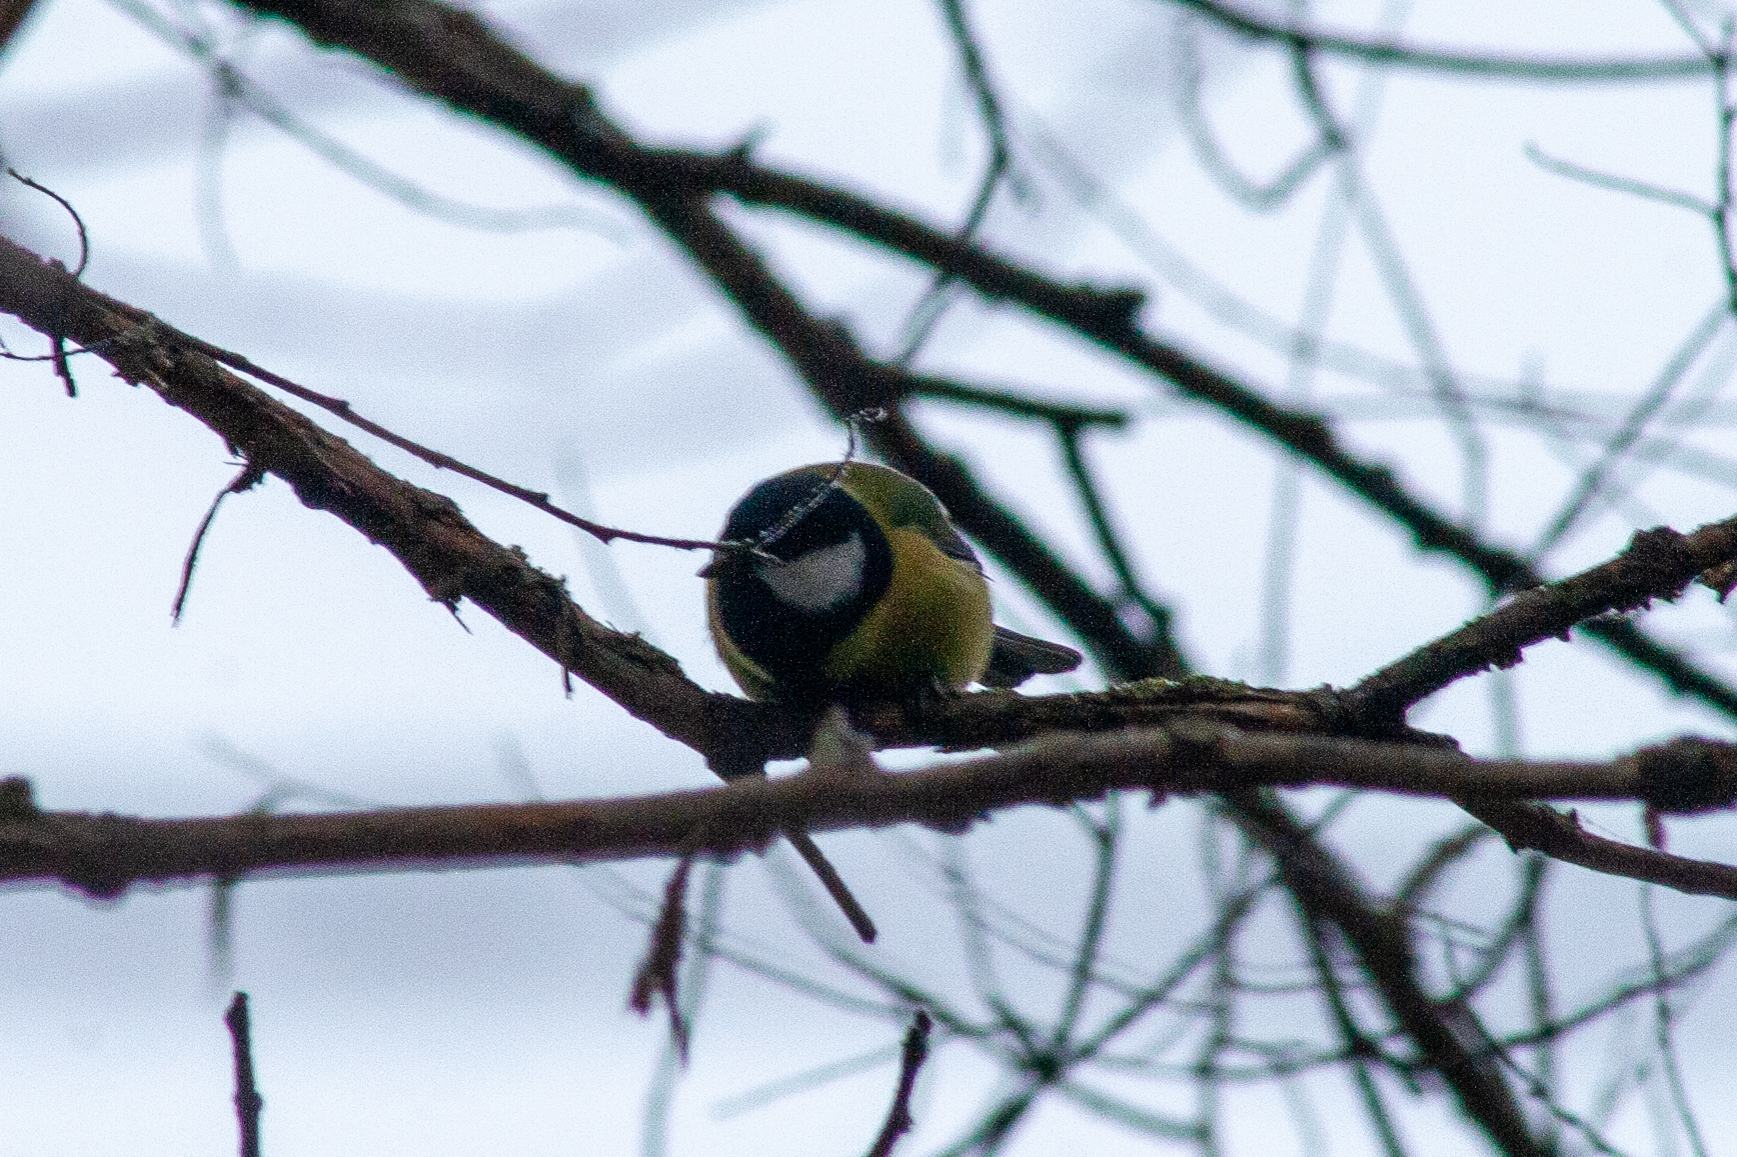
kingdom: Animalia
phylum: Chordata
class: Aves
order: Passeriformes
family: Paridae
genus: Parus
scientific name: Parus major
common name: Great tit
